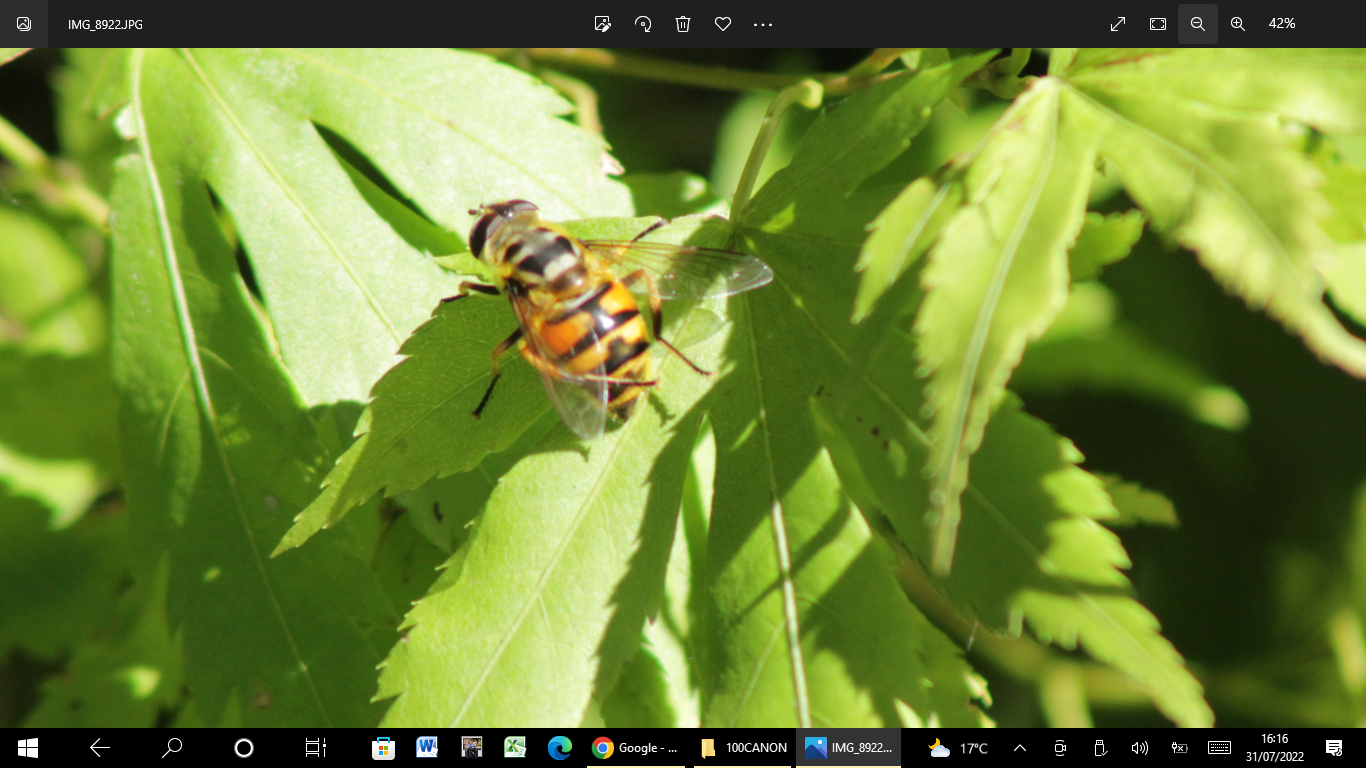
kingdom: Animalia
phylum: Arthropoda
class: Insecta
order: Diptera
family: Syrphidae
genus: Myathropa
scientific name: Myathropa florea
